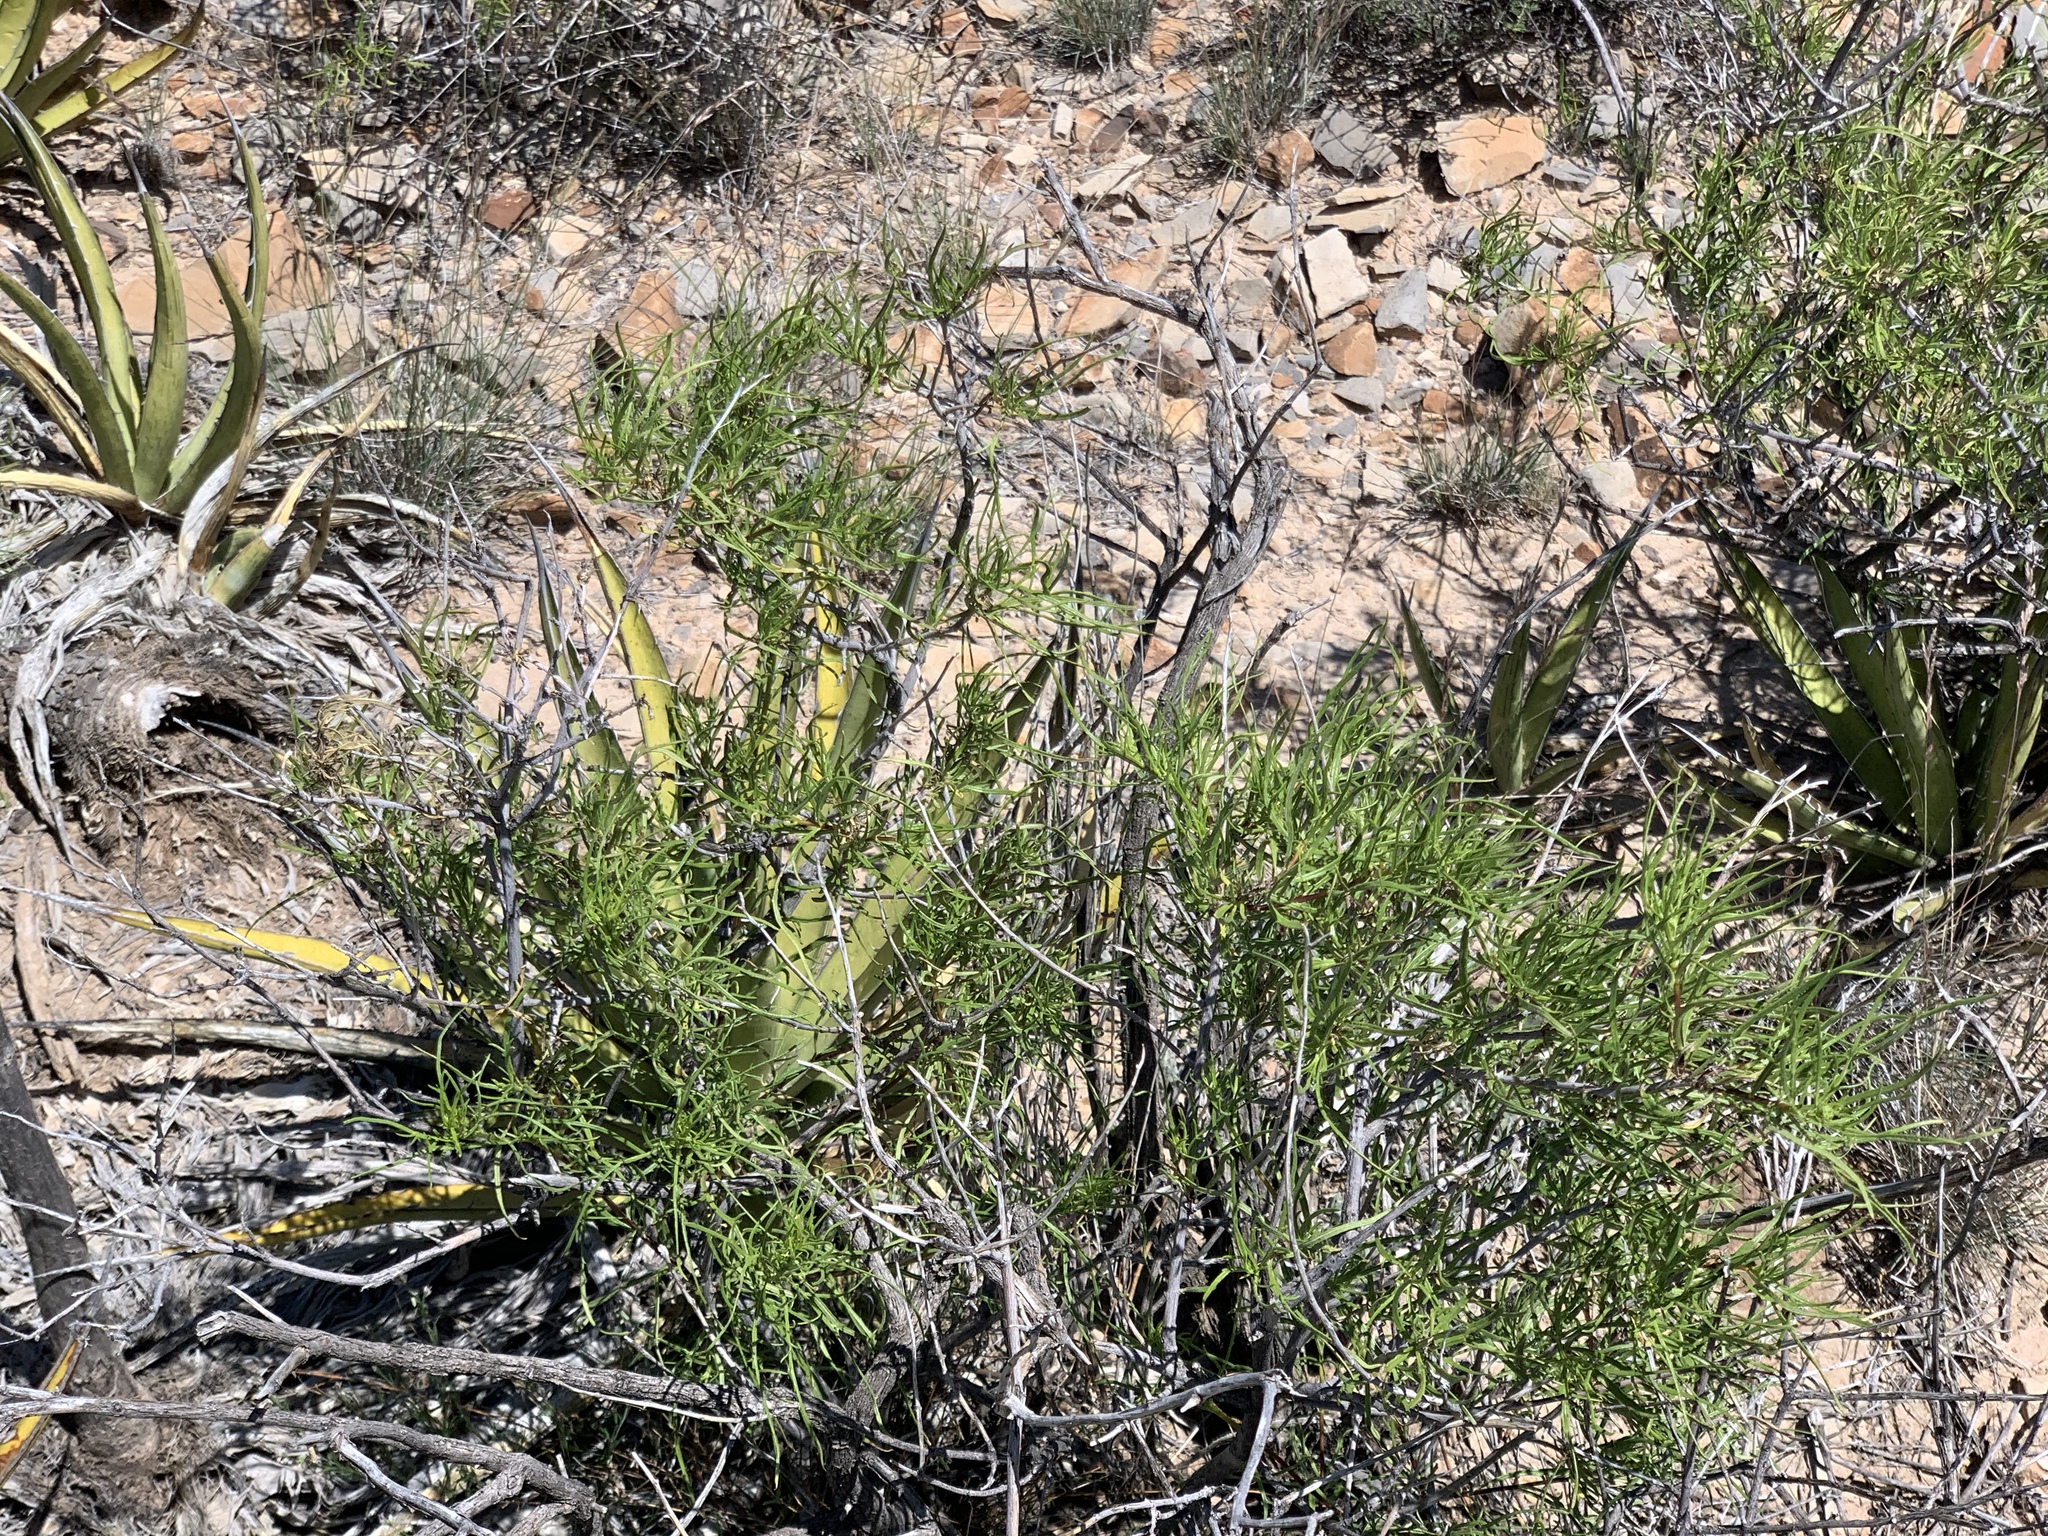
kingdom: Plantae
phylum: Tracheophyta
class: Magnoliopsida
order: Asterales
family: Asteraceae
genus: Sidneya
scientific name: Sidneya tenuifolia
